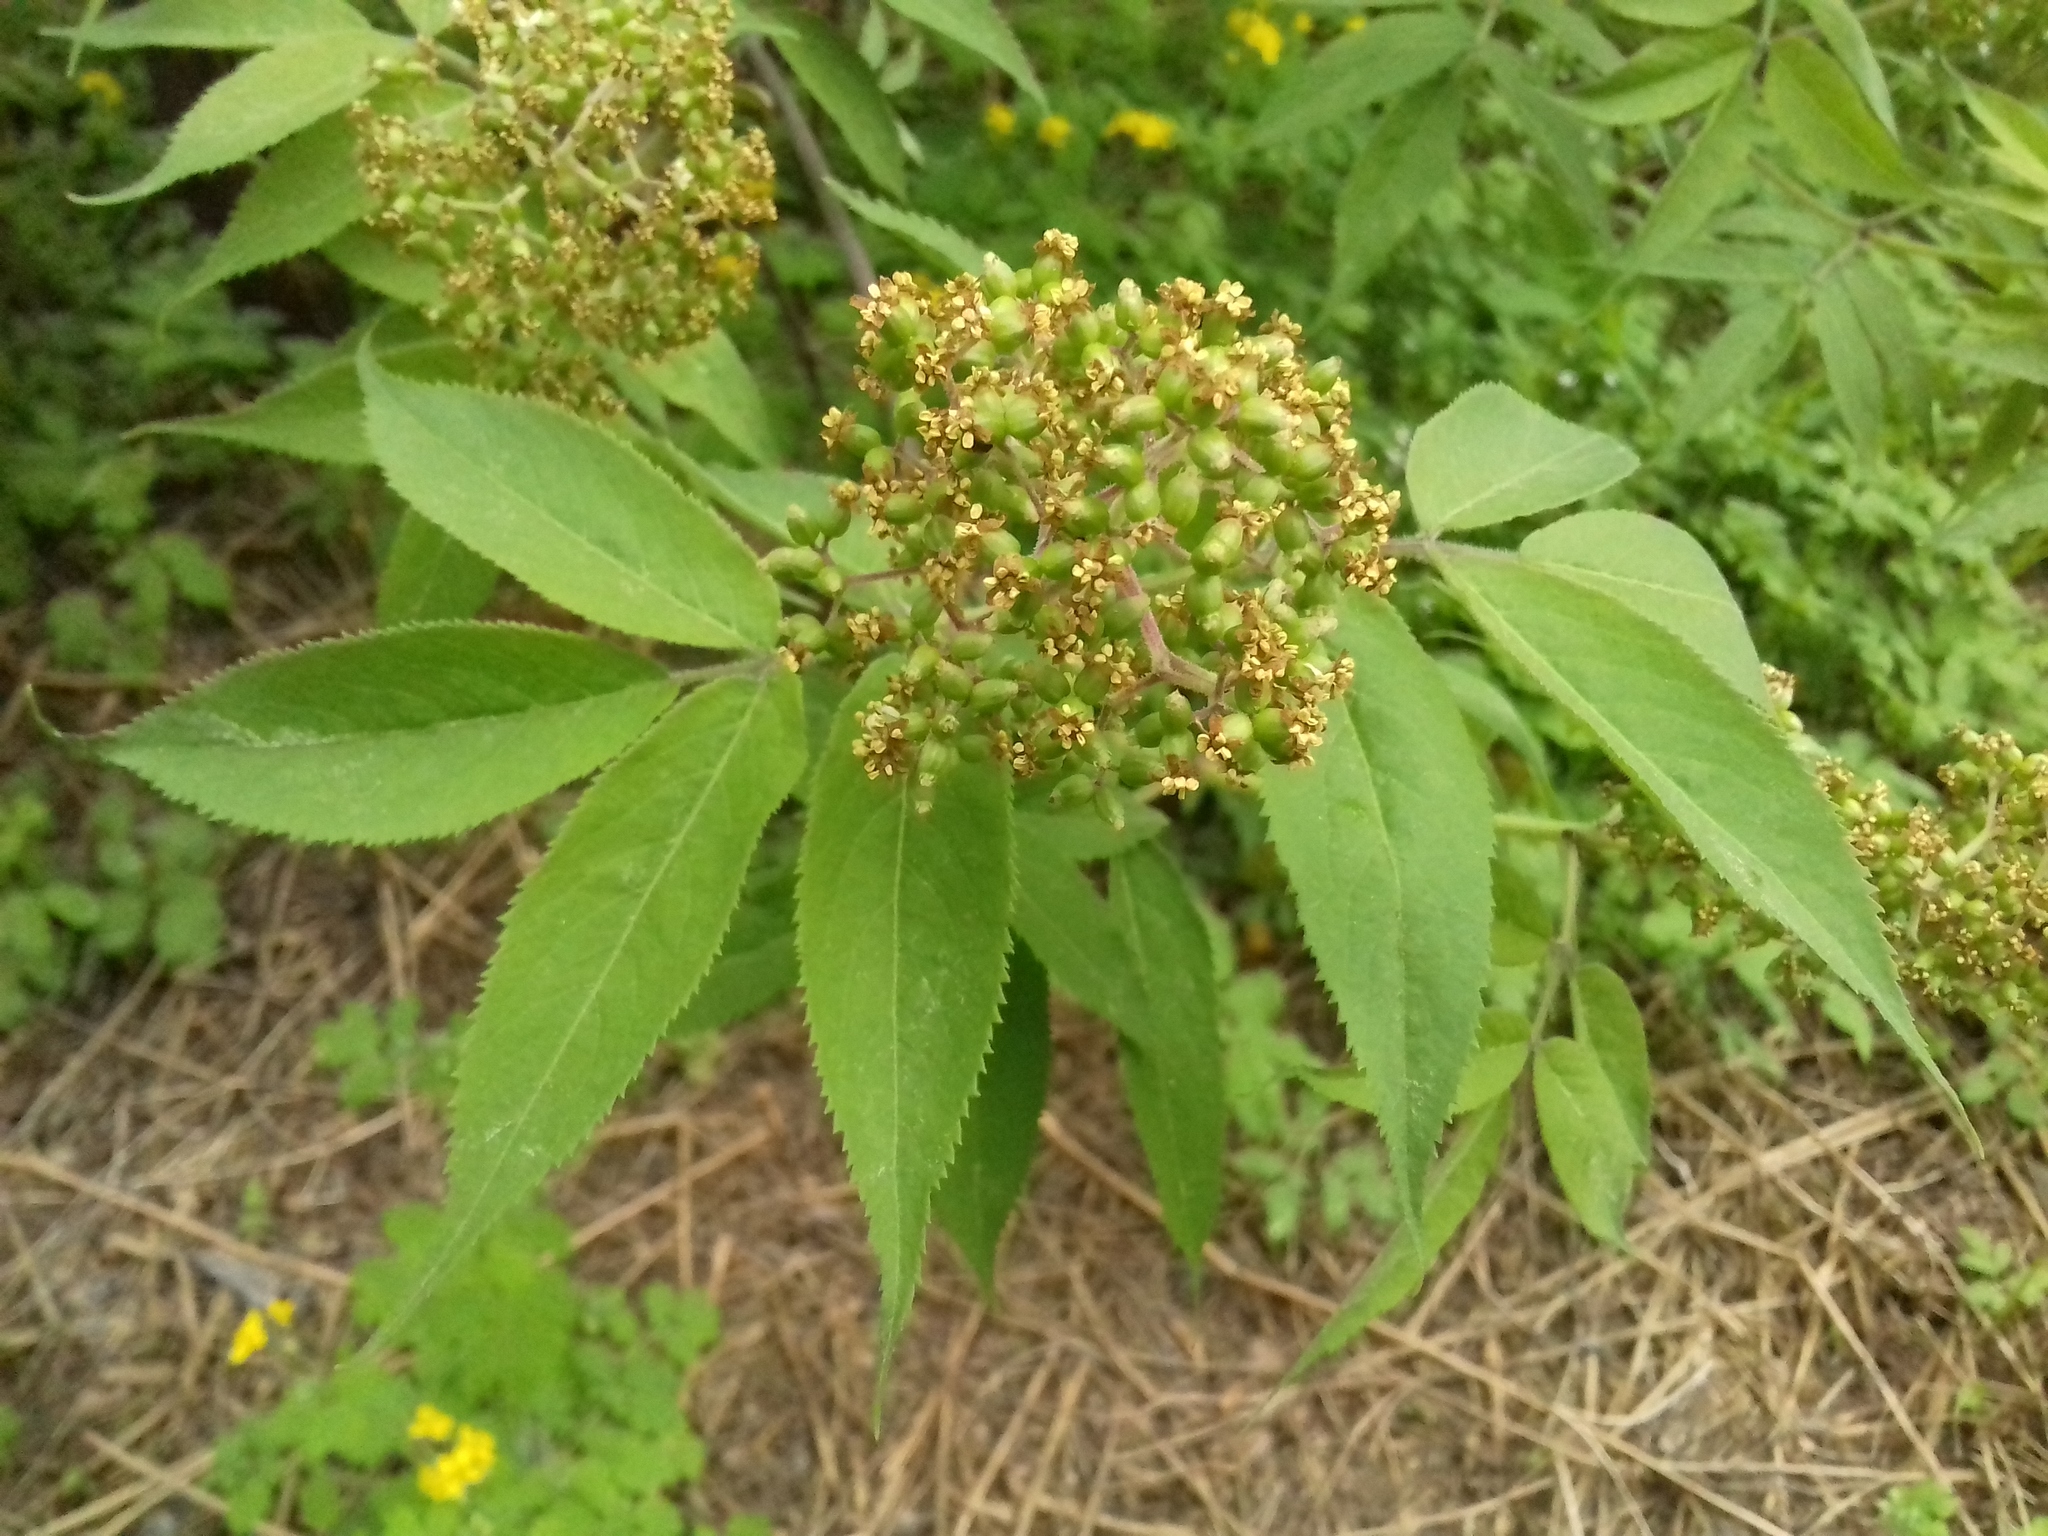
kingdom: Plantae
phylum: Tracheophyta
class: Magnoliopsida
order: Dipsacales
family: Viburnaceae
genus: Sambucus
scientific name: Sambucus racemosa
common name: Red-berried elder
